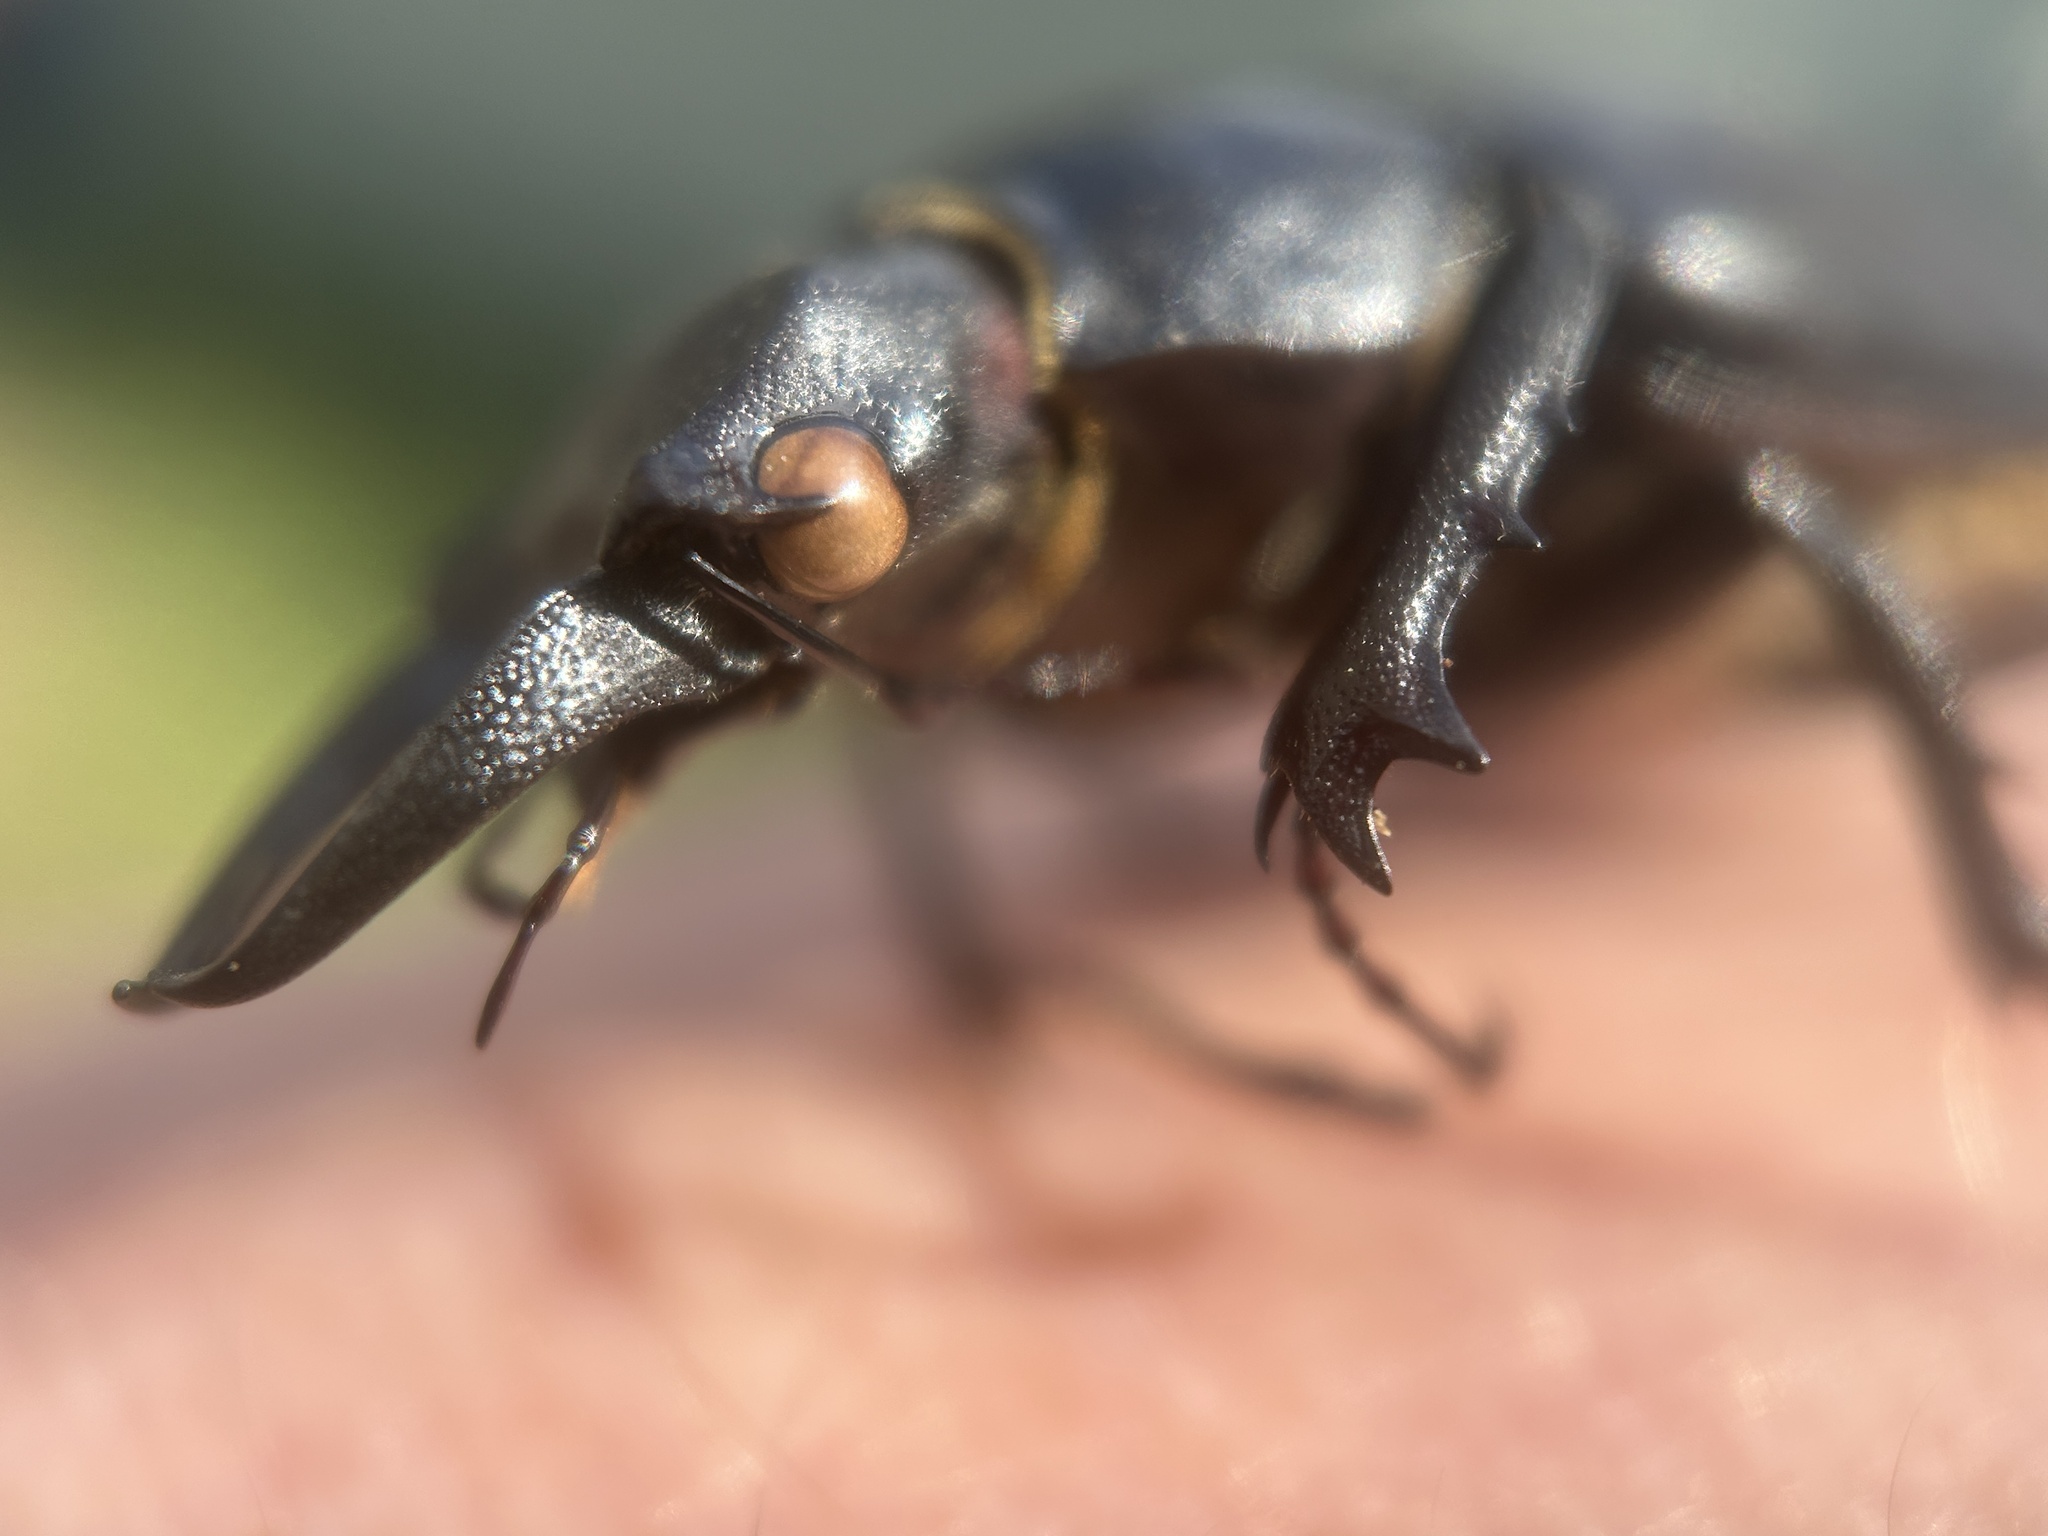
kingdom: Animalia
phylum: Arthropoda
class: Insecta
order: Coleoptera
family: Lucanidae
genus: Lucanus
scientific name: Lucanus placidus
